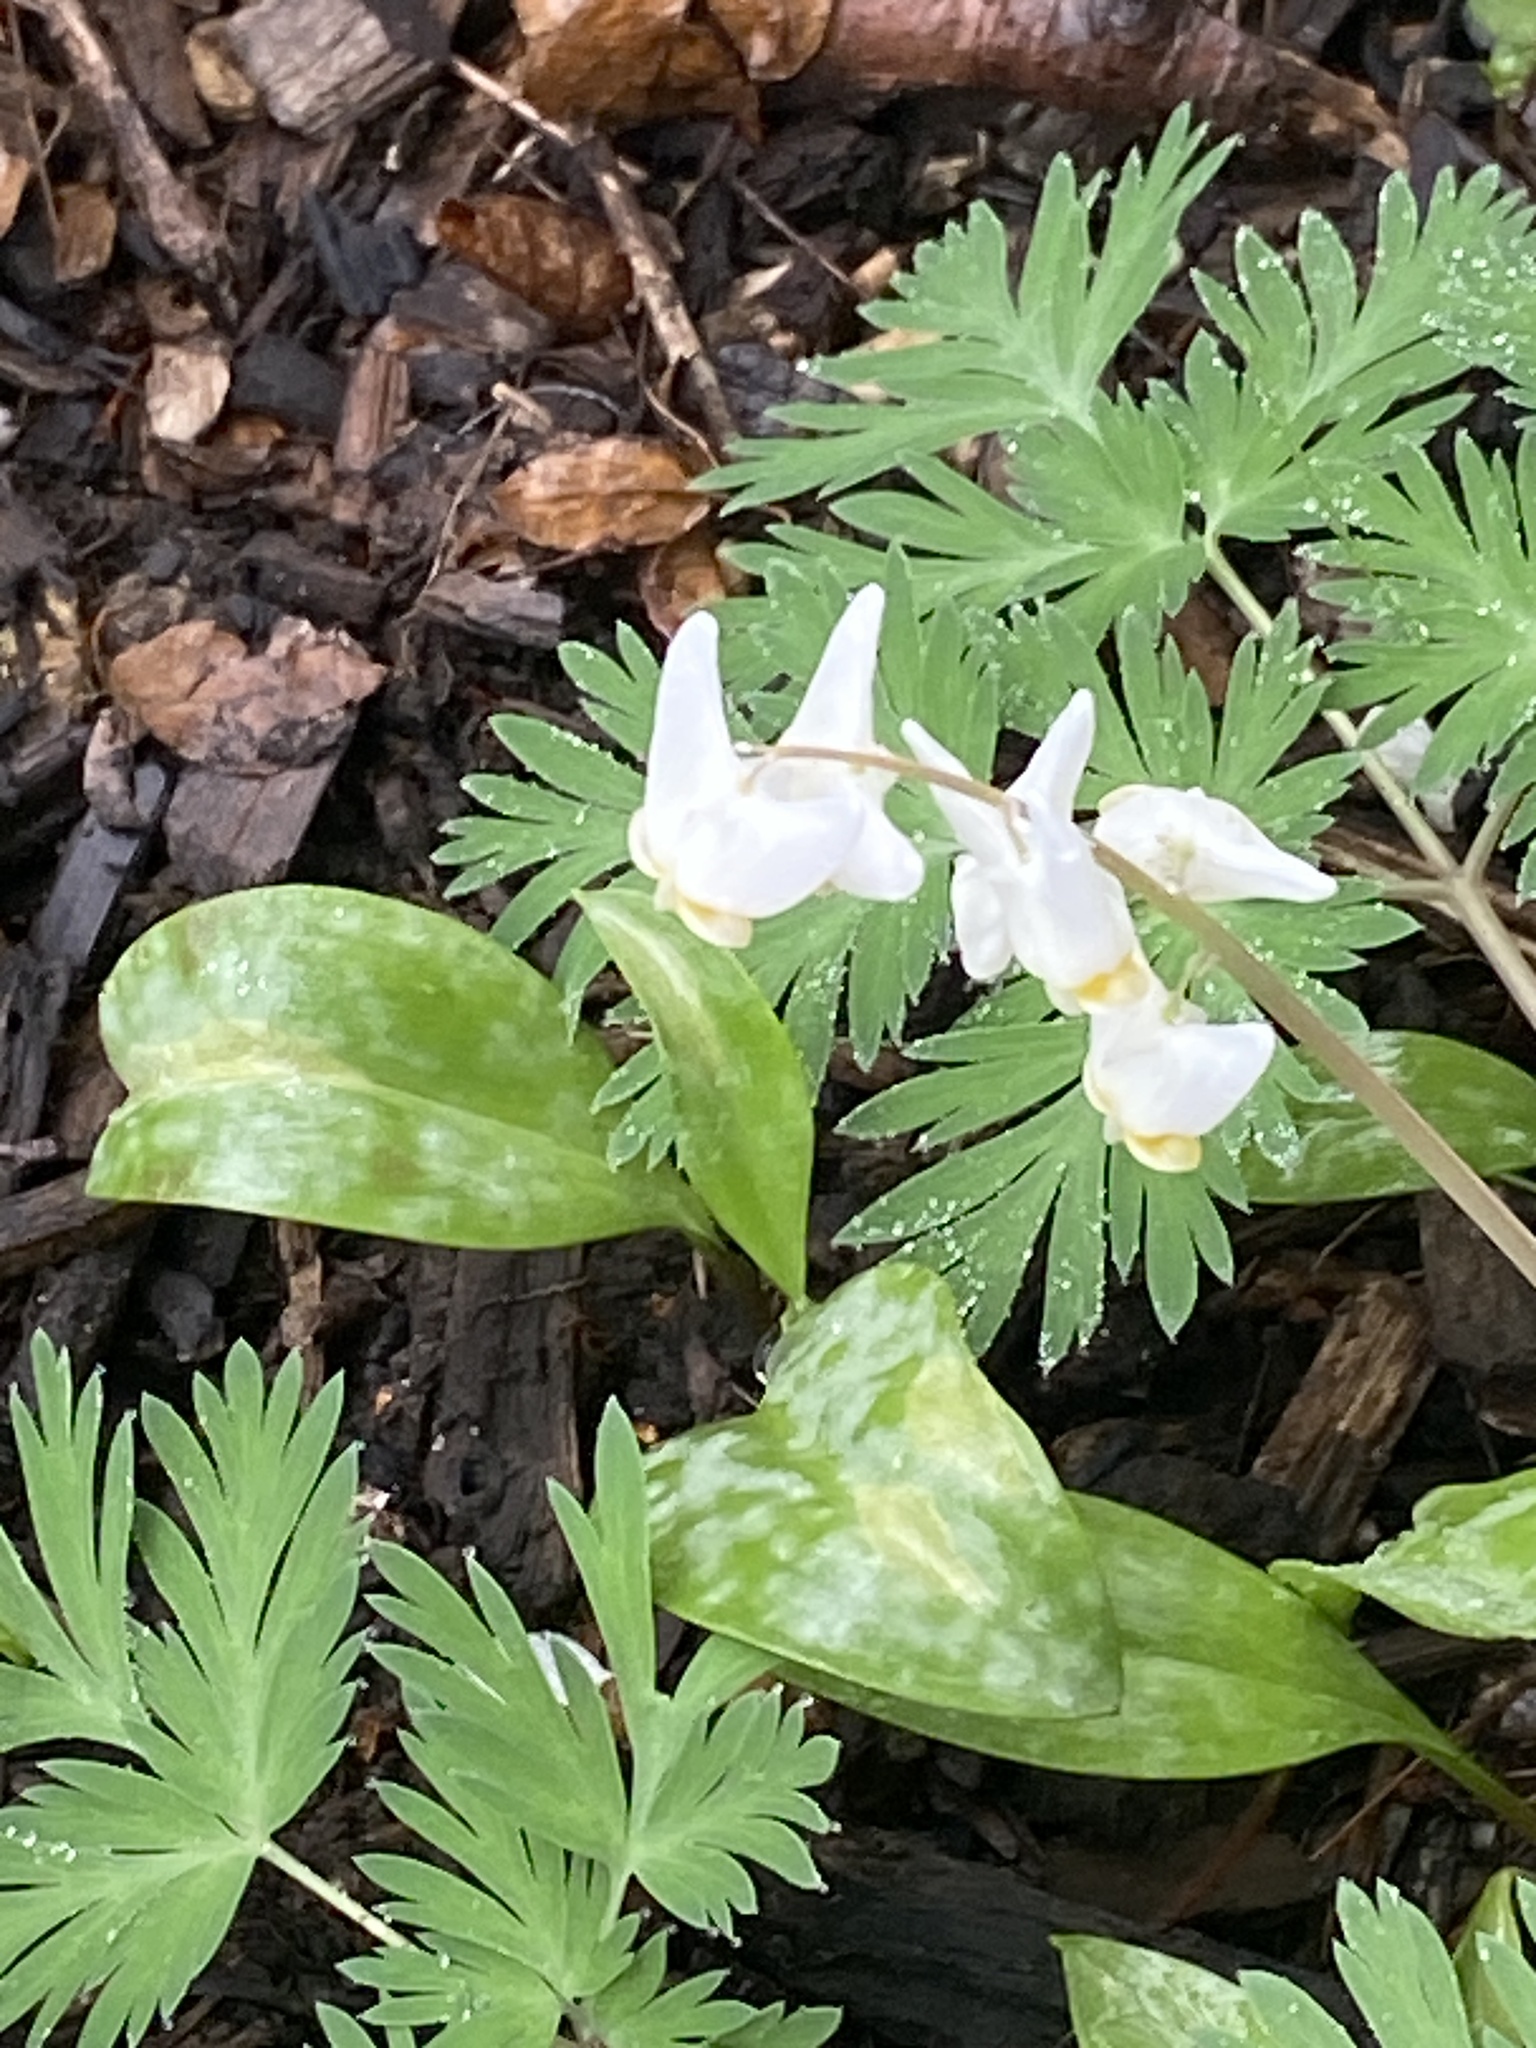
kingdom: Plantae
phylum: Tracheophyta
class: Magnoliopsida
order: Ranunculales
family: Papaveraceae
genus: Dicentra
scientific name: Dicentra cucullaria
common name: Dutchman's breeches
